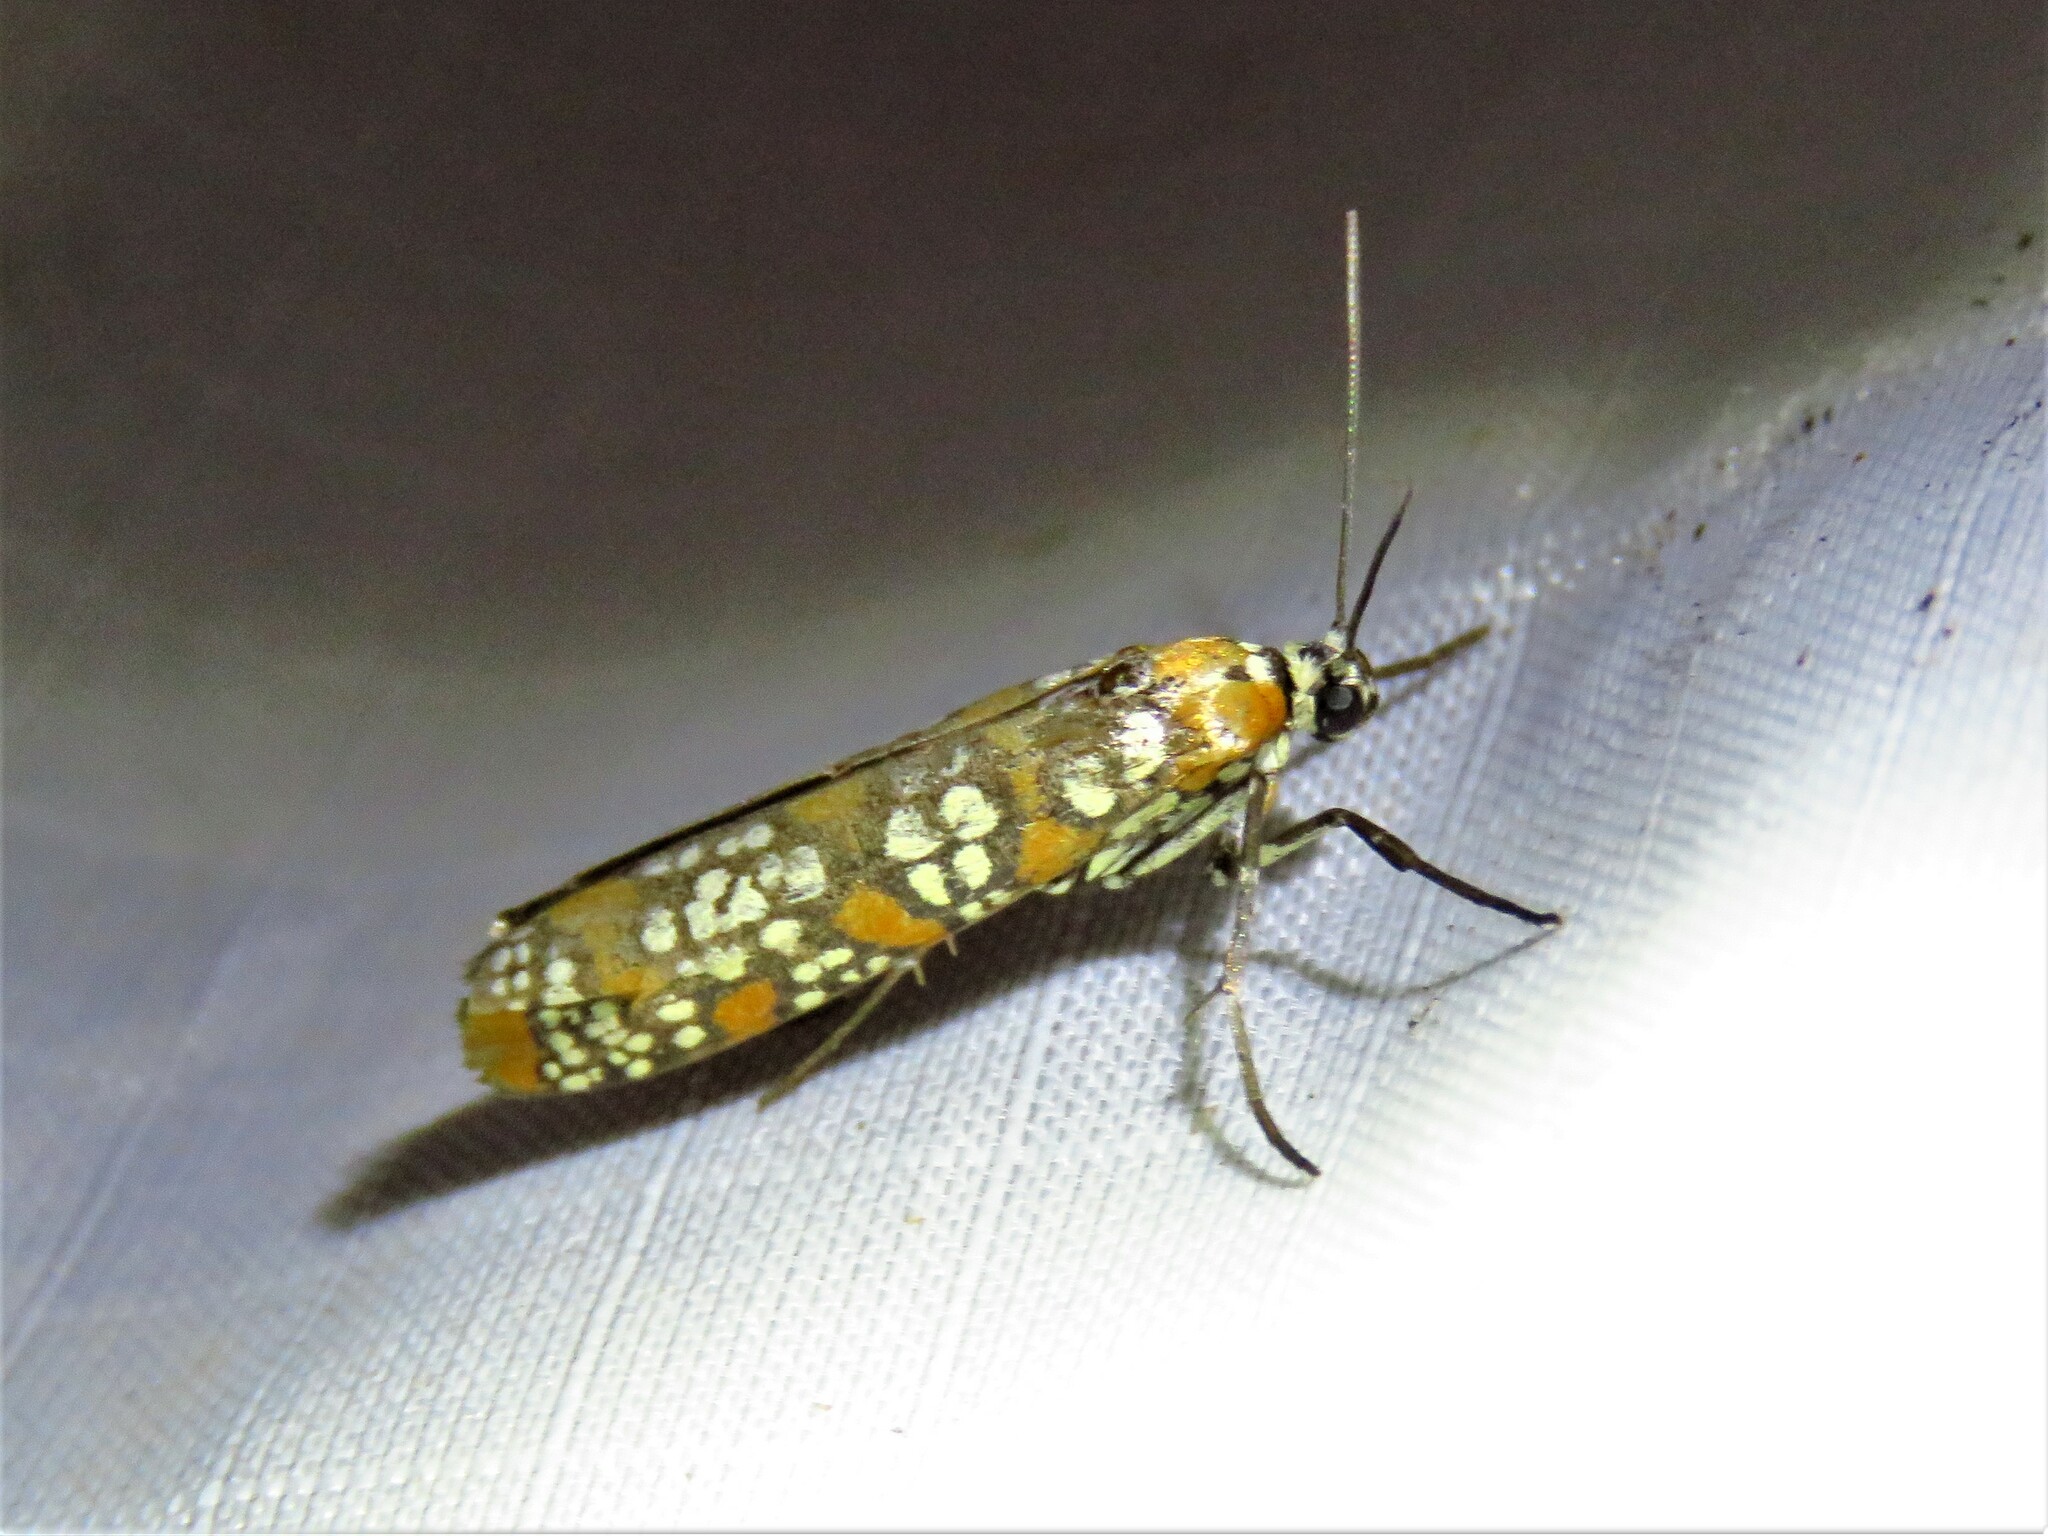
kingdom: Animalia
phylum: Arthropoda
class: Insecta
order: Lepidoptera
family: Attevidae
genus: Atteva
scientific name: Atteva punctella
